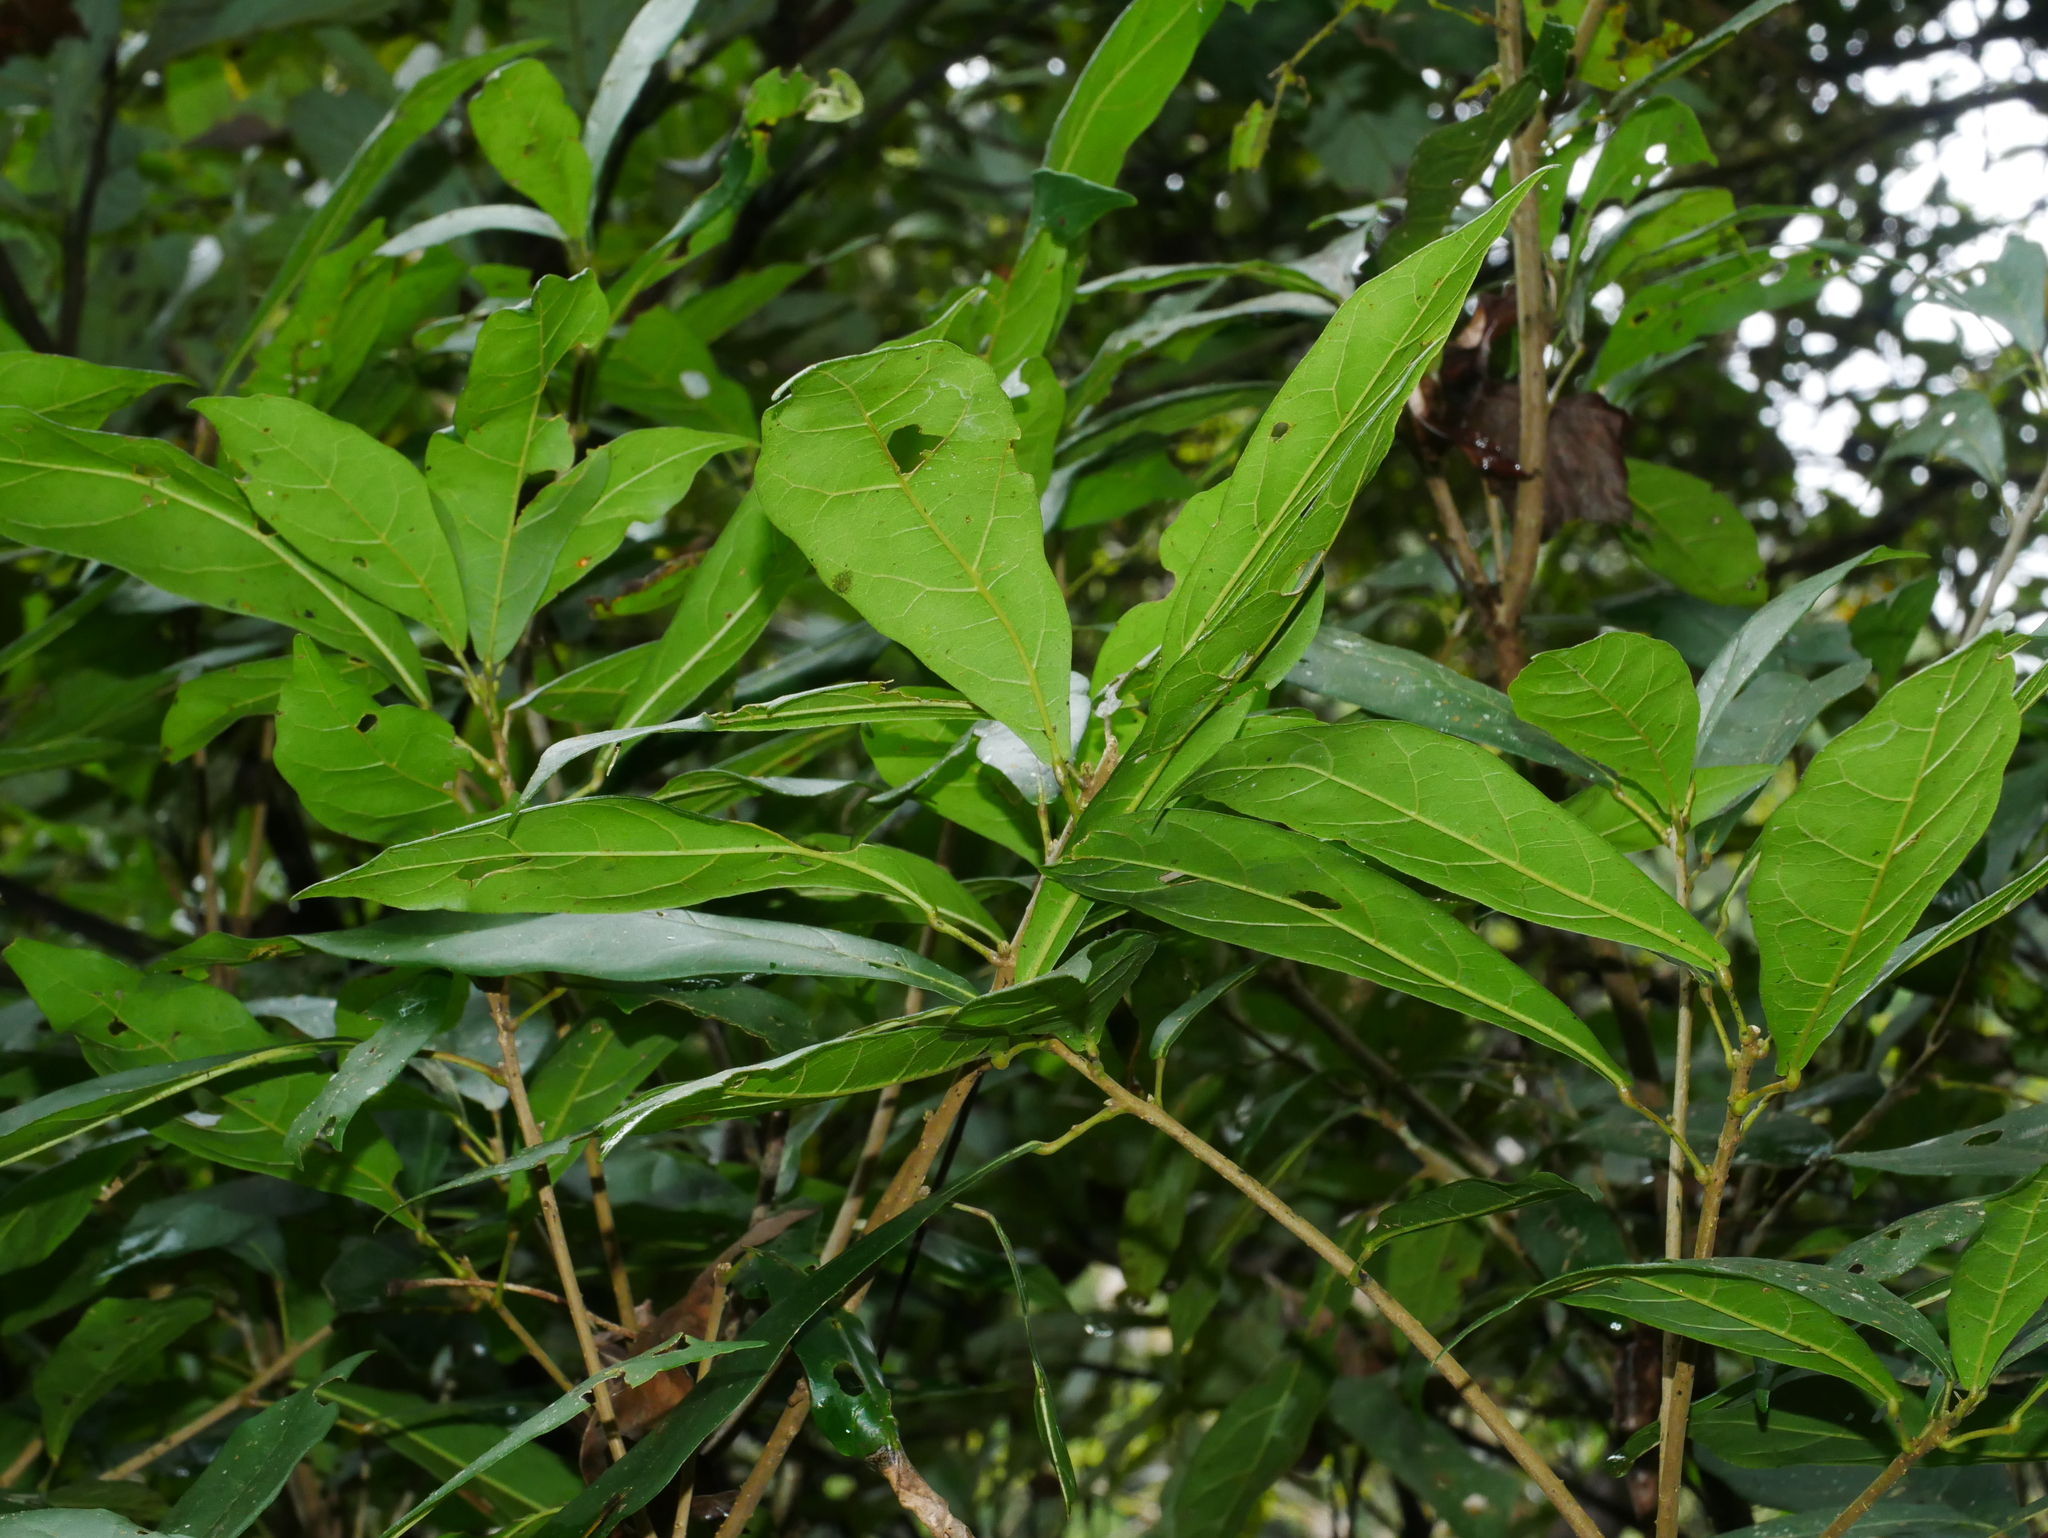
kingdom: Plantae
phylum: Tracheophyta
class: Magnoliopsida
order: Oxalidales
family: Elaeocarpaceae
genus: Sloanea
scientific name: Sloanea dasycarpa
